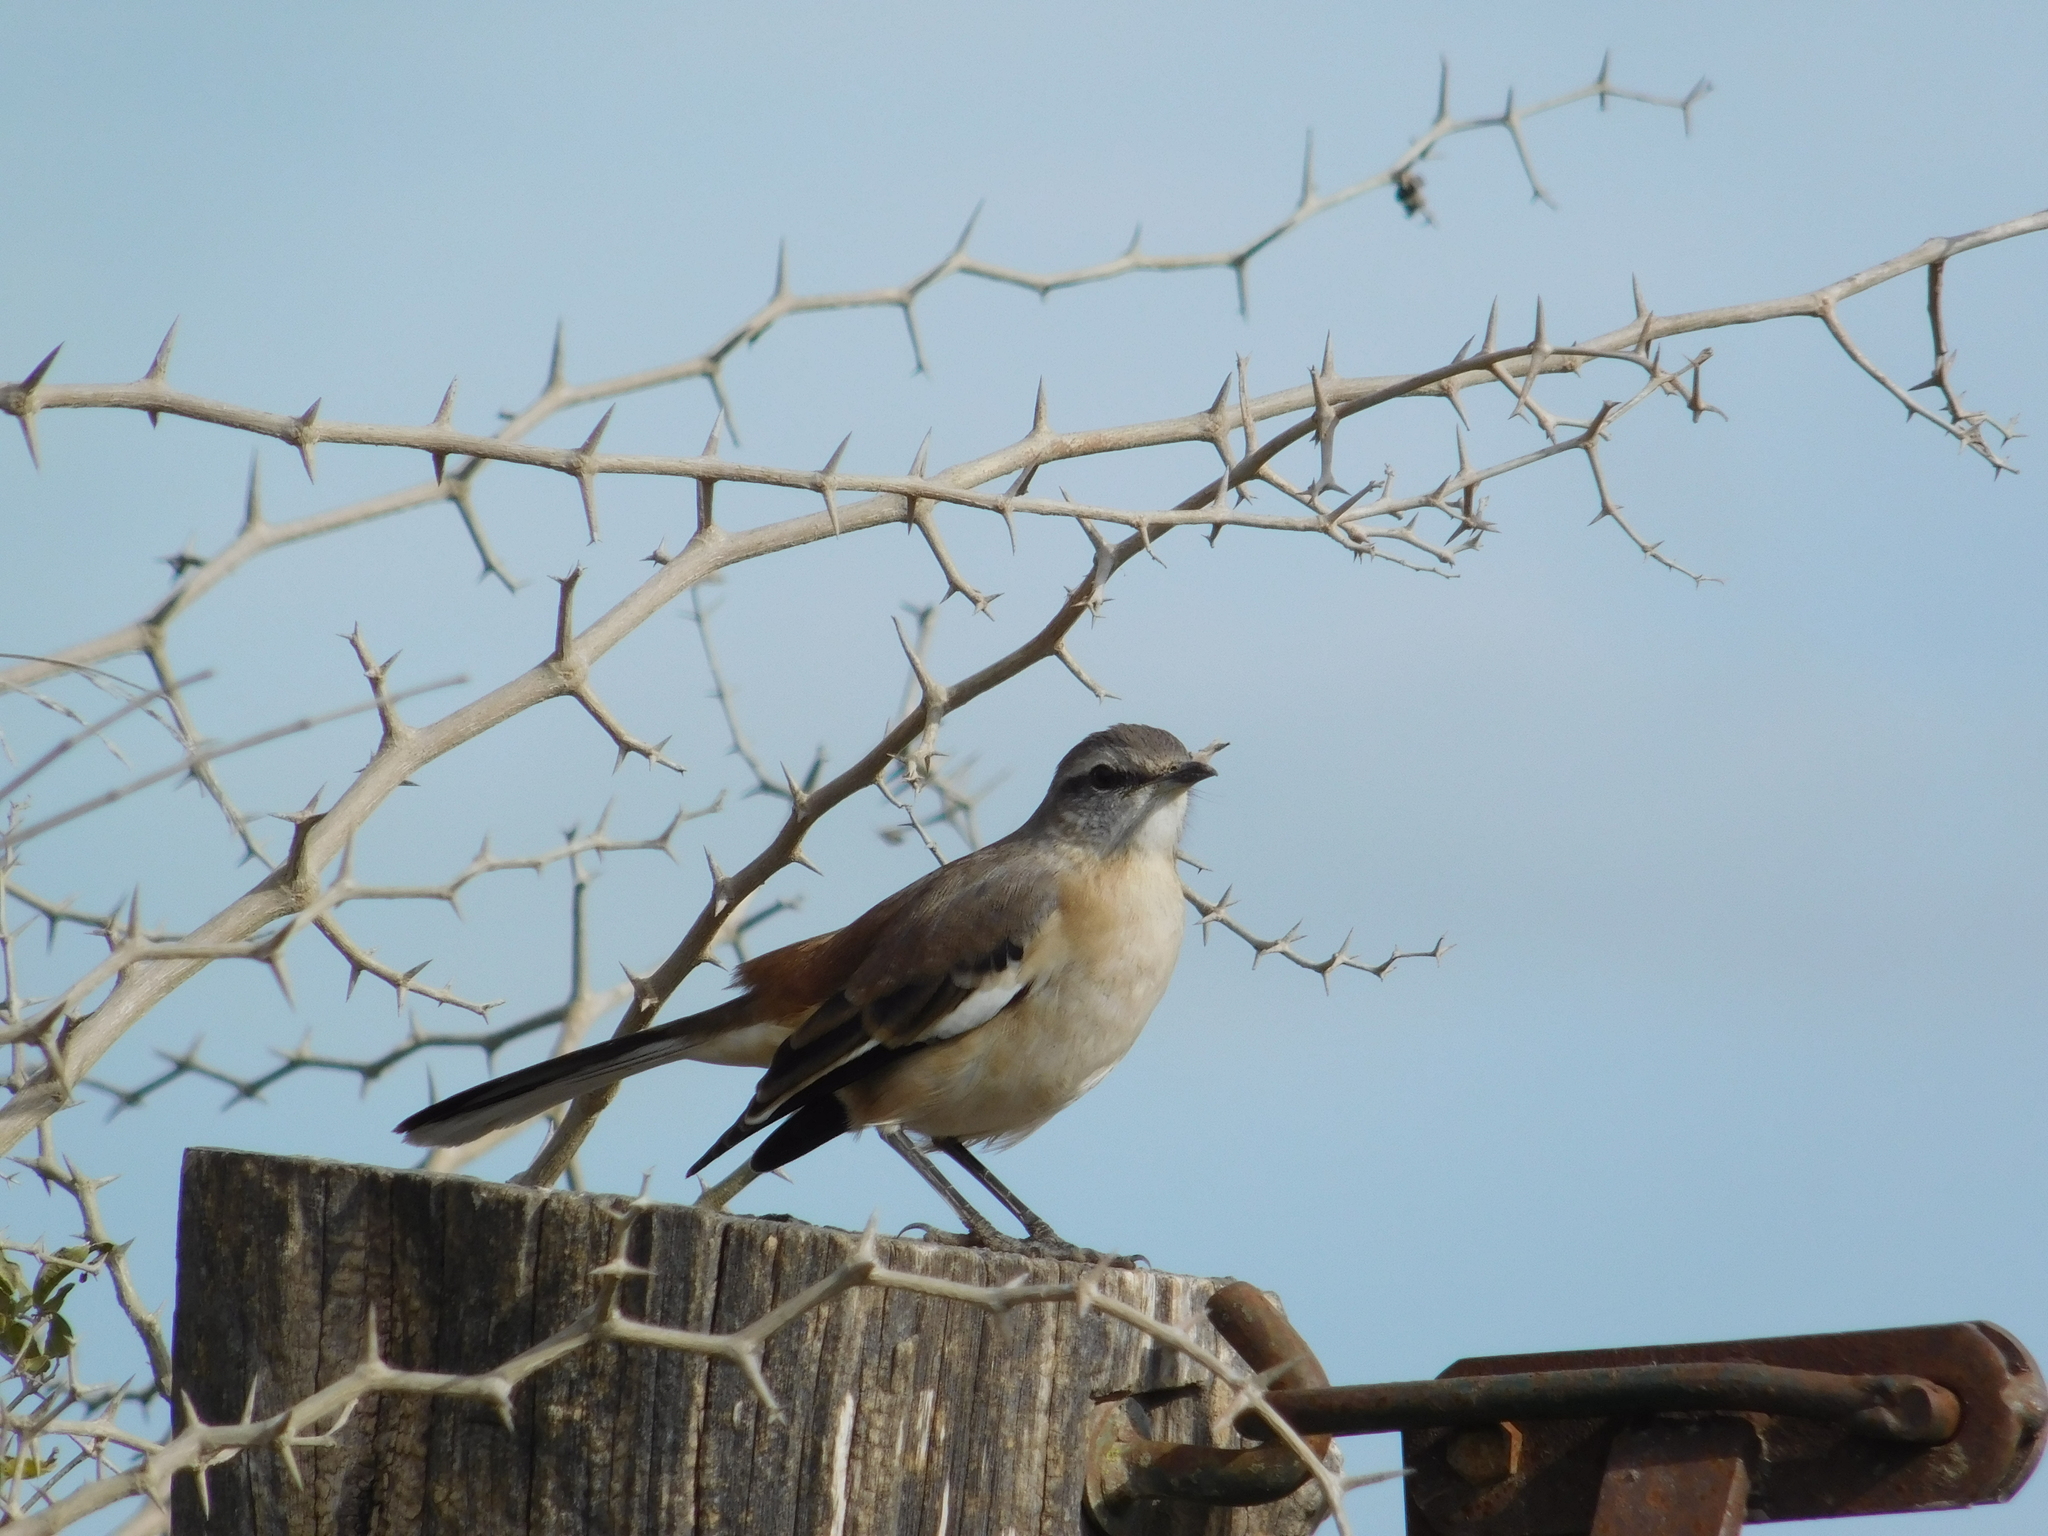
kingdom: Animalia
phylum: Chordata
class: Aves
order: Passeriformes
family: Mimidae
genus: Mimus
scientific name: Mimus triurus
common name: White-banded mockingbird
